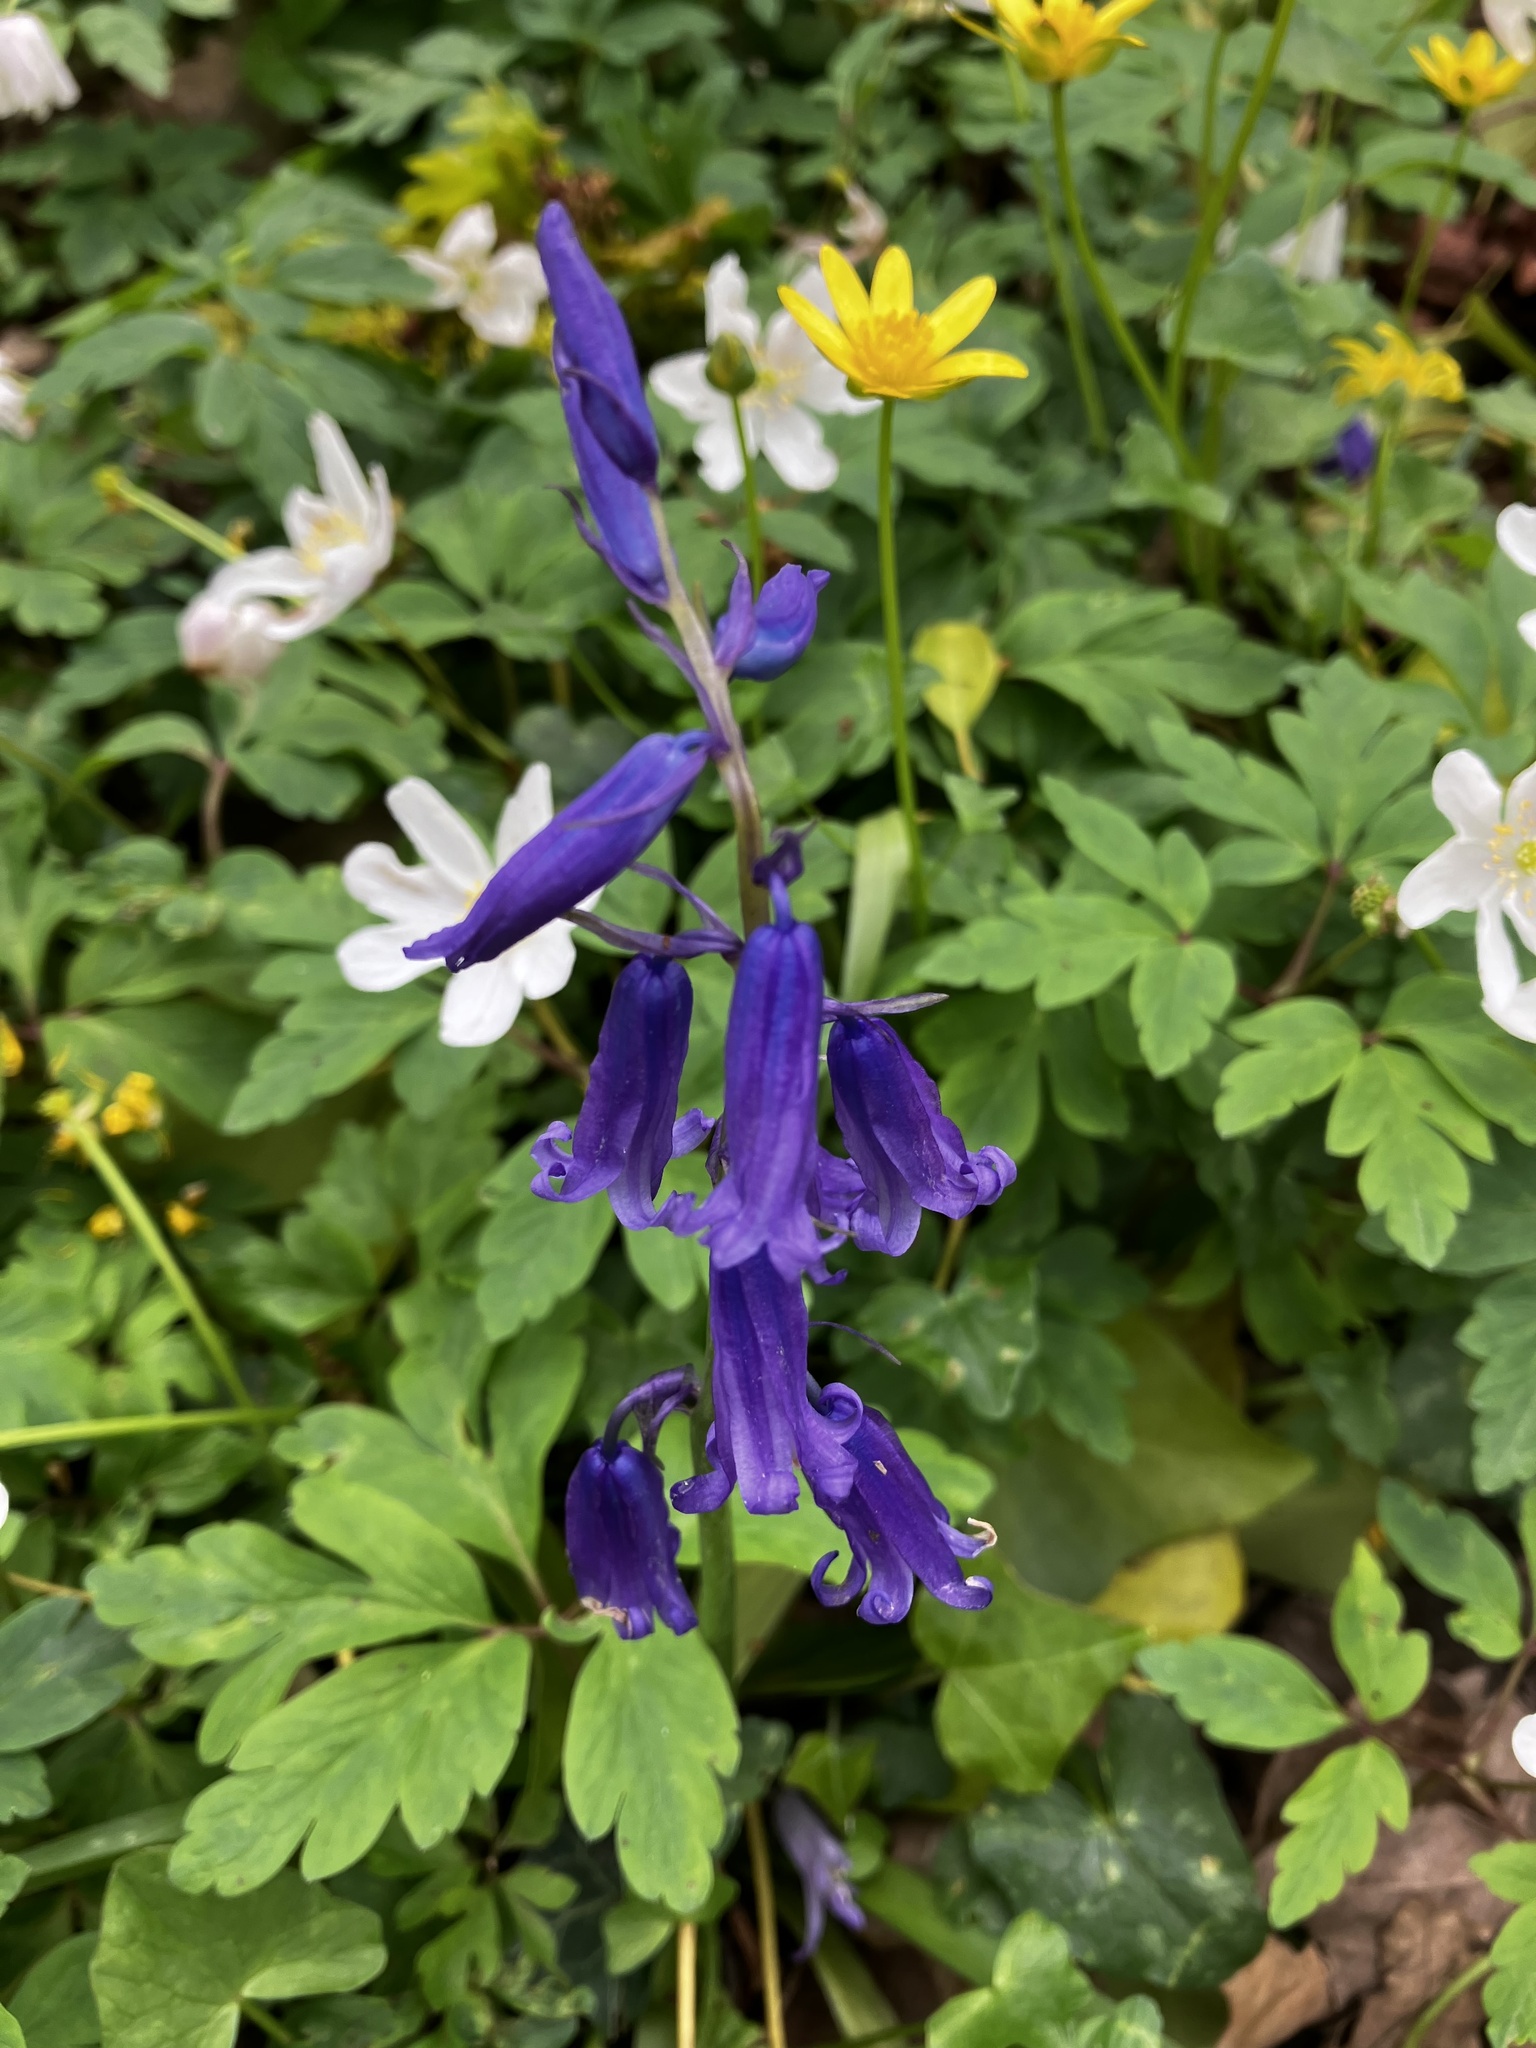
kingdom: Plantae
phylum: Tracheophyta
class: Liliopsida
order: Asparagales
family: Asparagaceae
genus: Hyacinthoides
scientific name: Hyacinthoides non-scripta
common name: Bluebell
